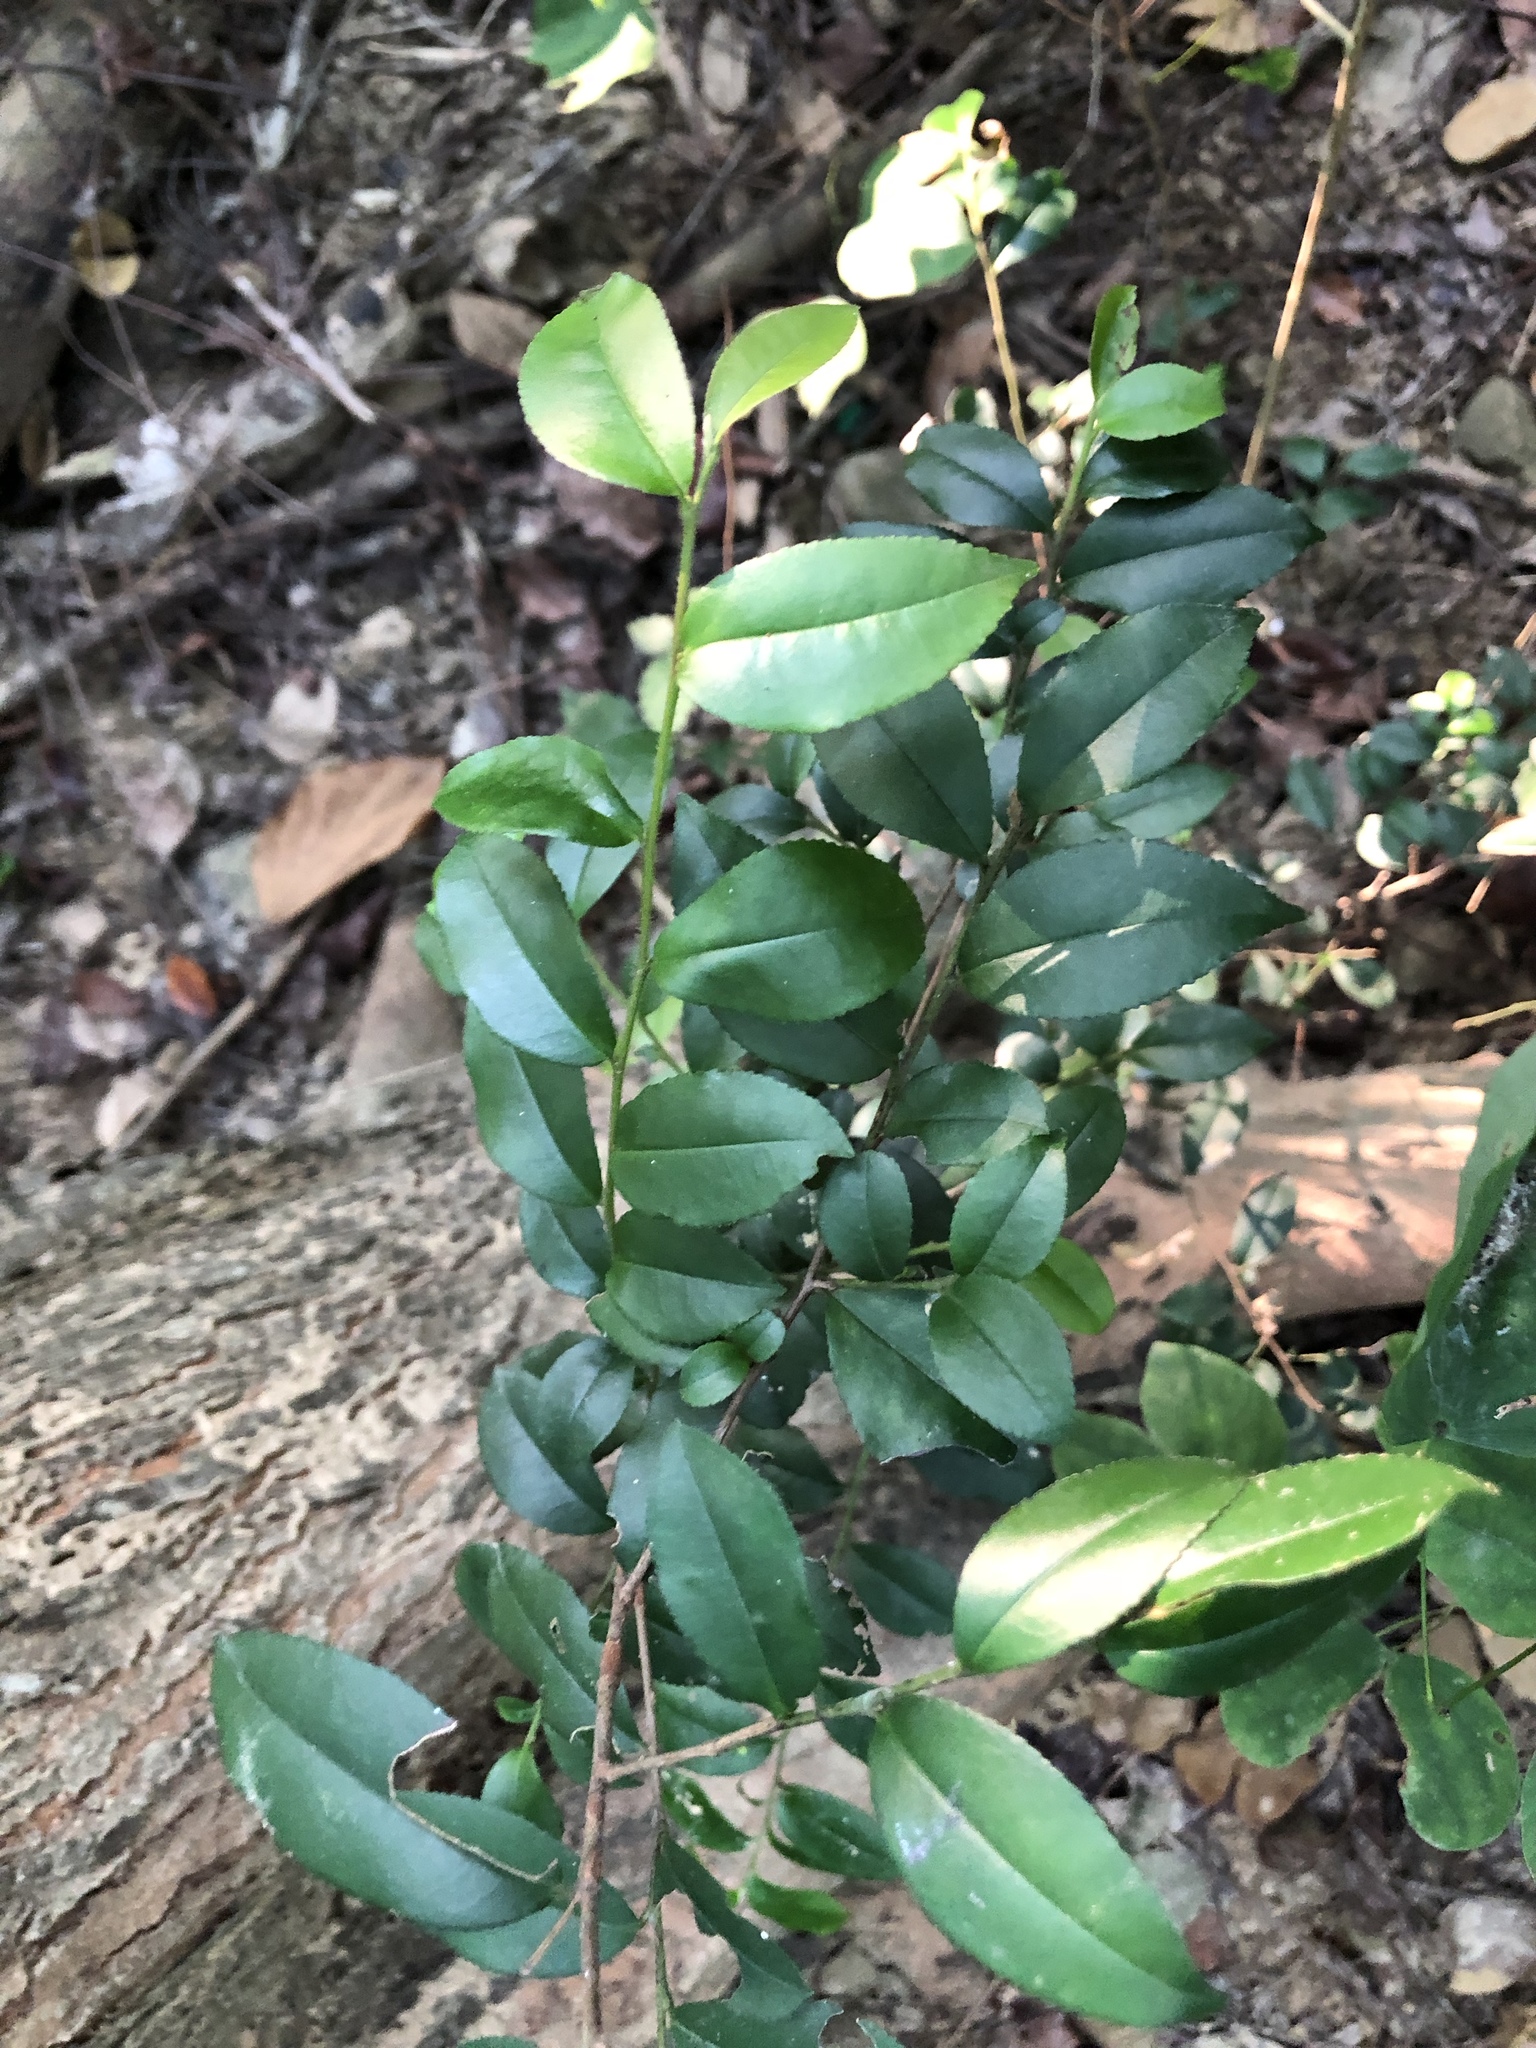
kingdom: Plantae
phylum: Tracheophyta
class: Magnoliopsida
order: Ericales
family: Pentaphylacaceae
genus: Eurya
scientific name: Eurya loquaiana
